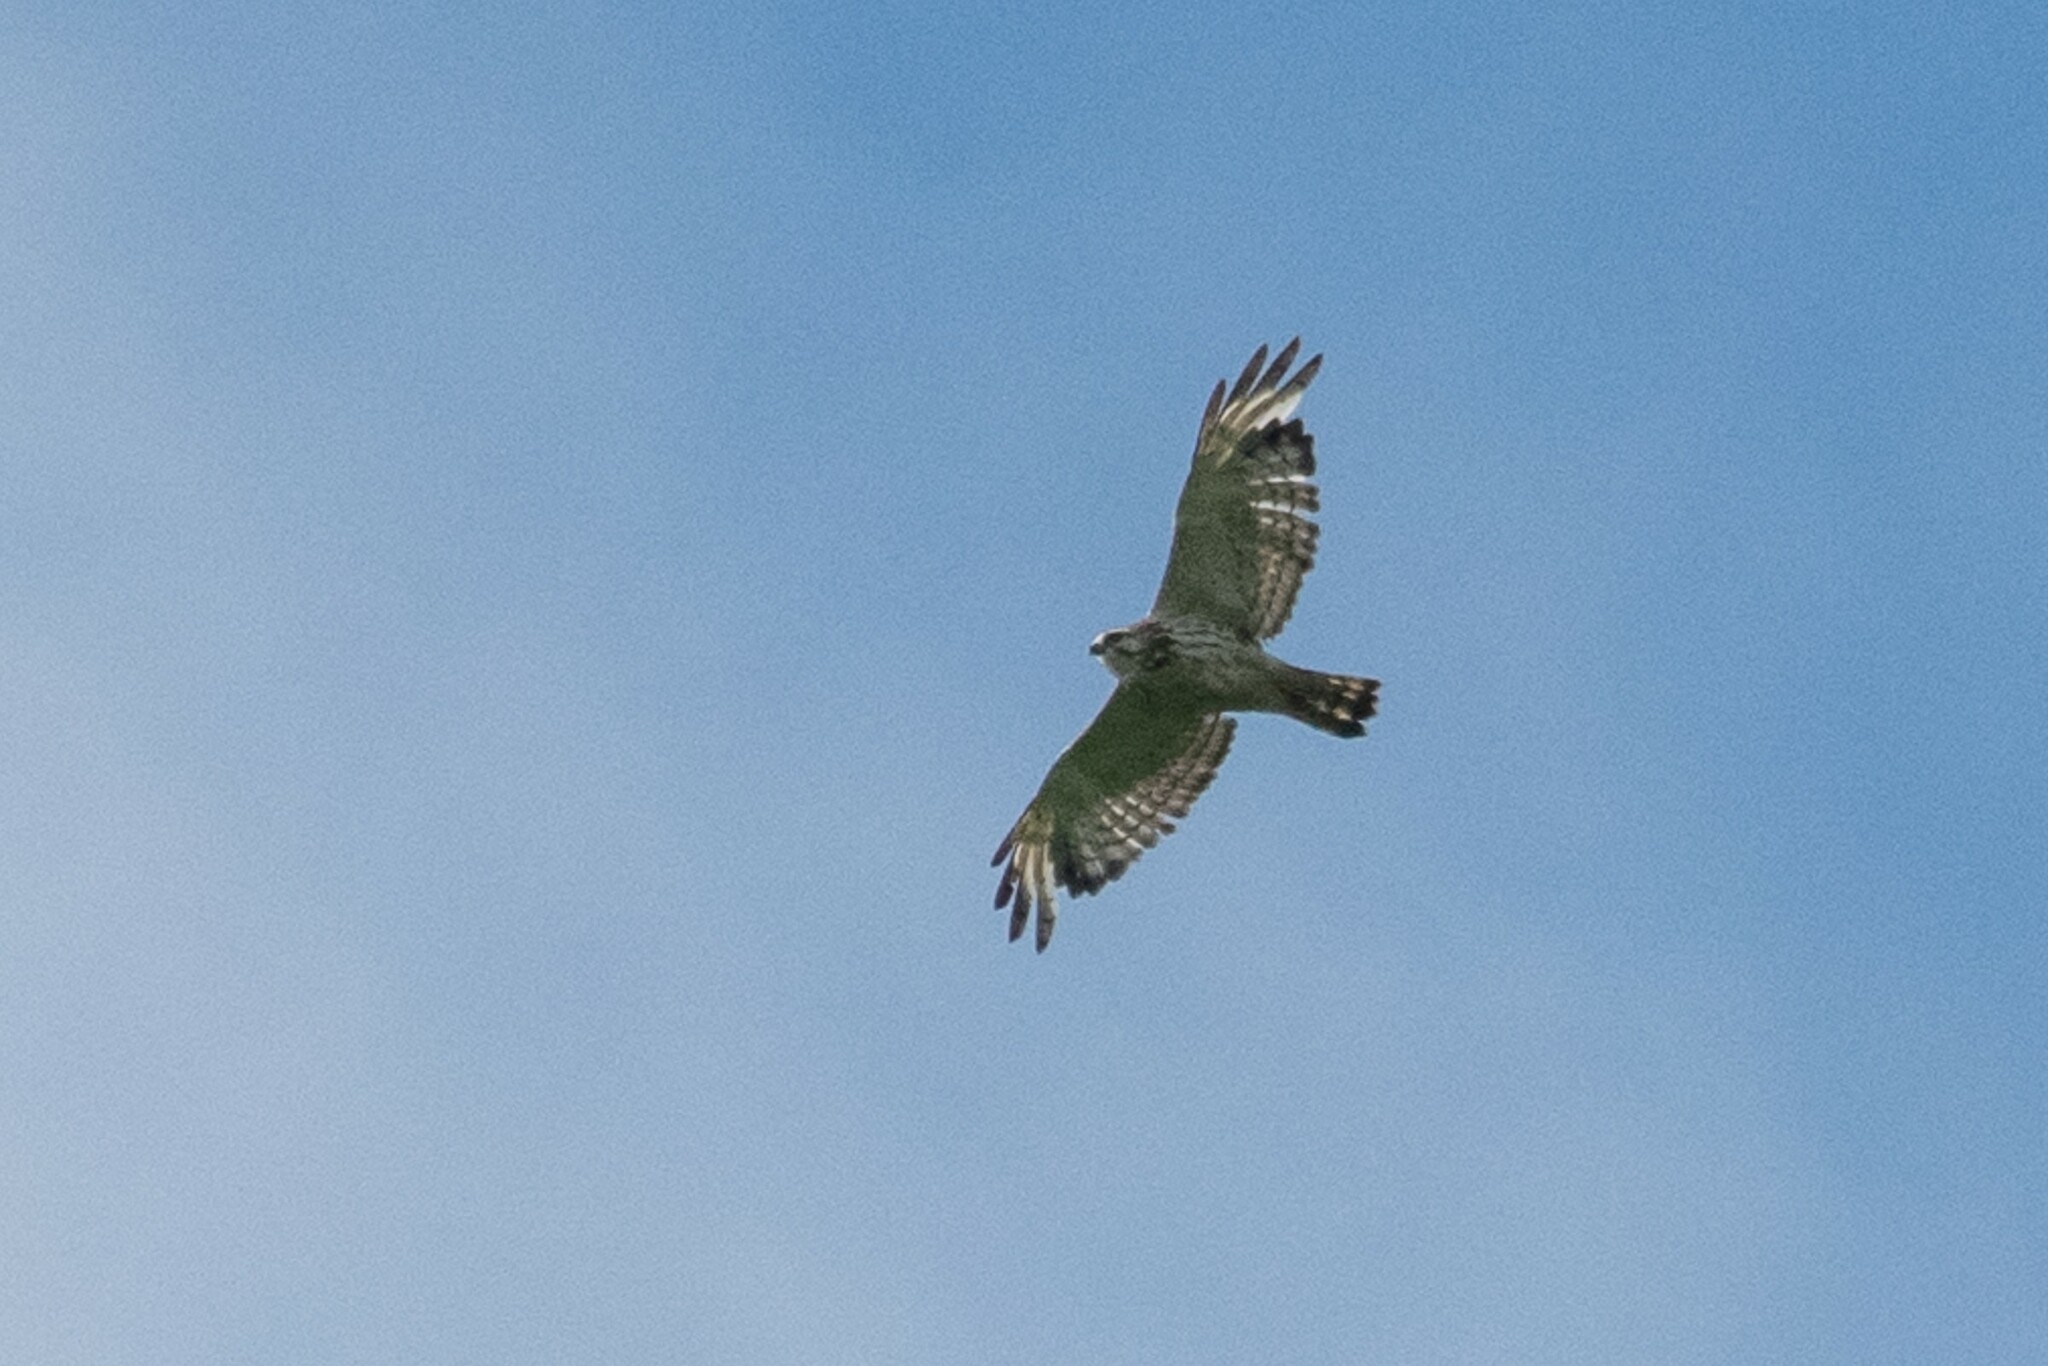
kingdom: Animalia
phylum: Chordata
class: Aves
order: Accipitriformes
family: Accipitridae
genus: Buteo
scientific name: Buteo platypterus
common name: Broad-winged hawk
